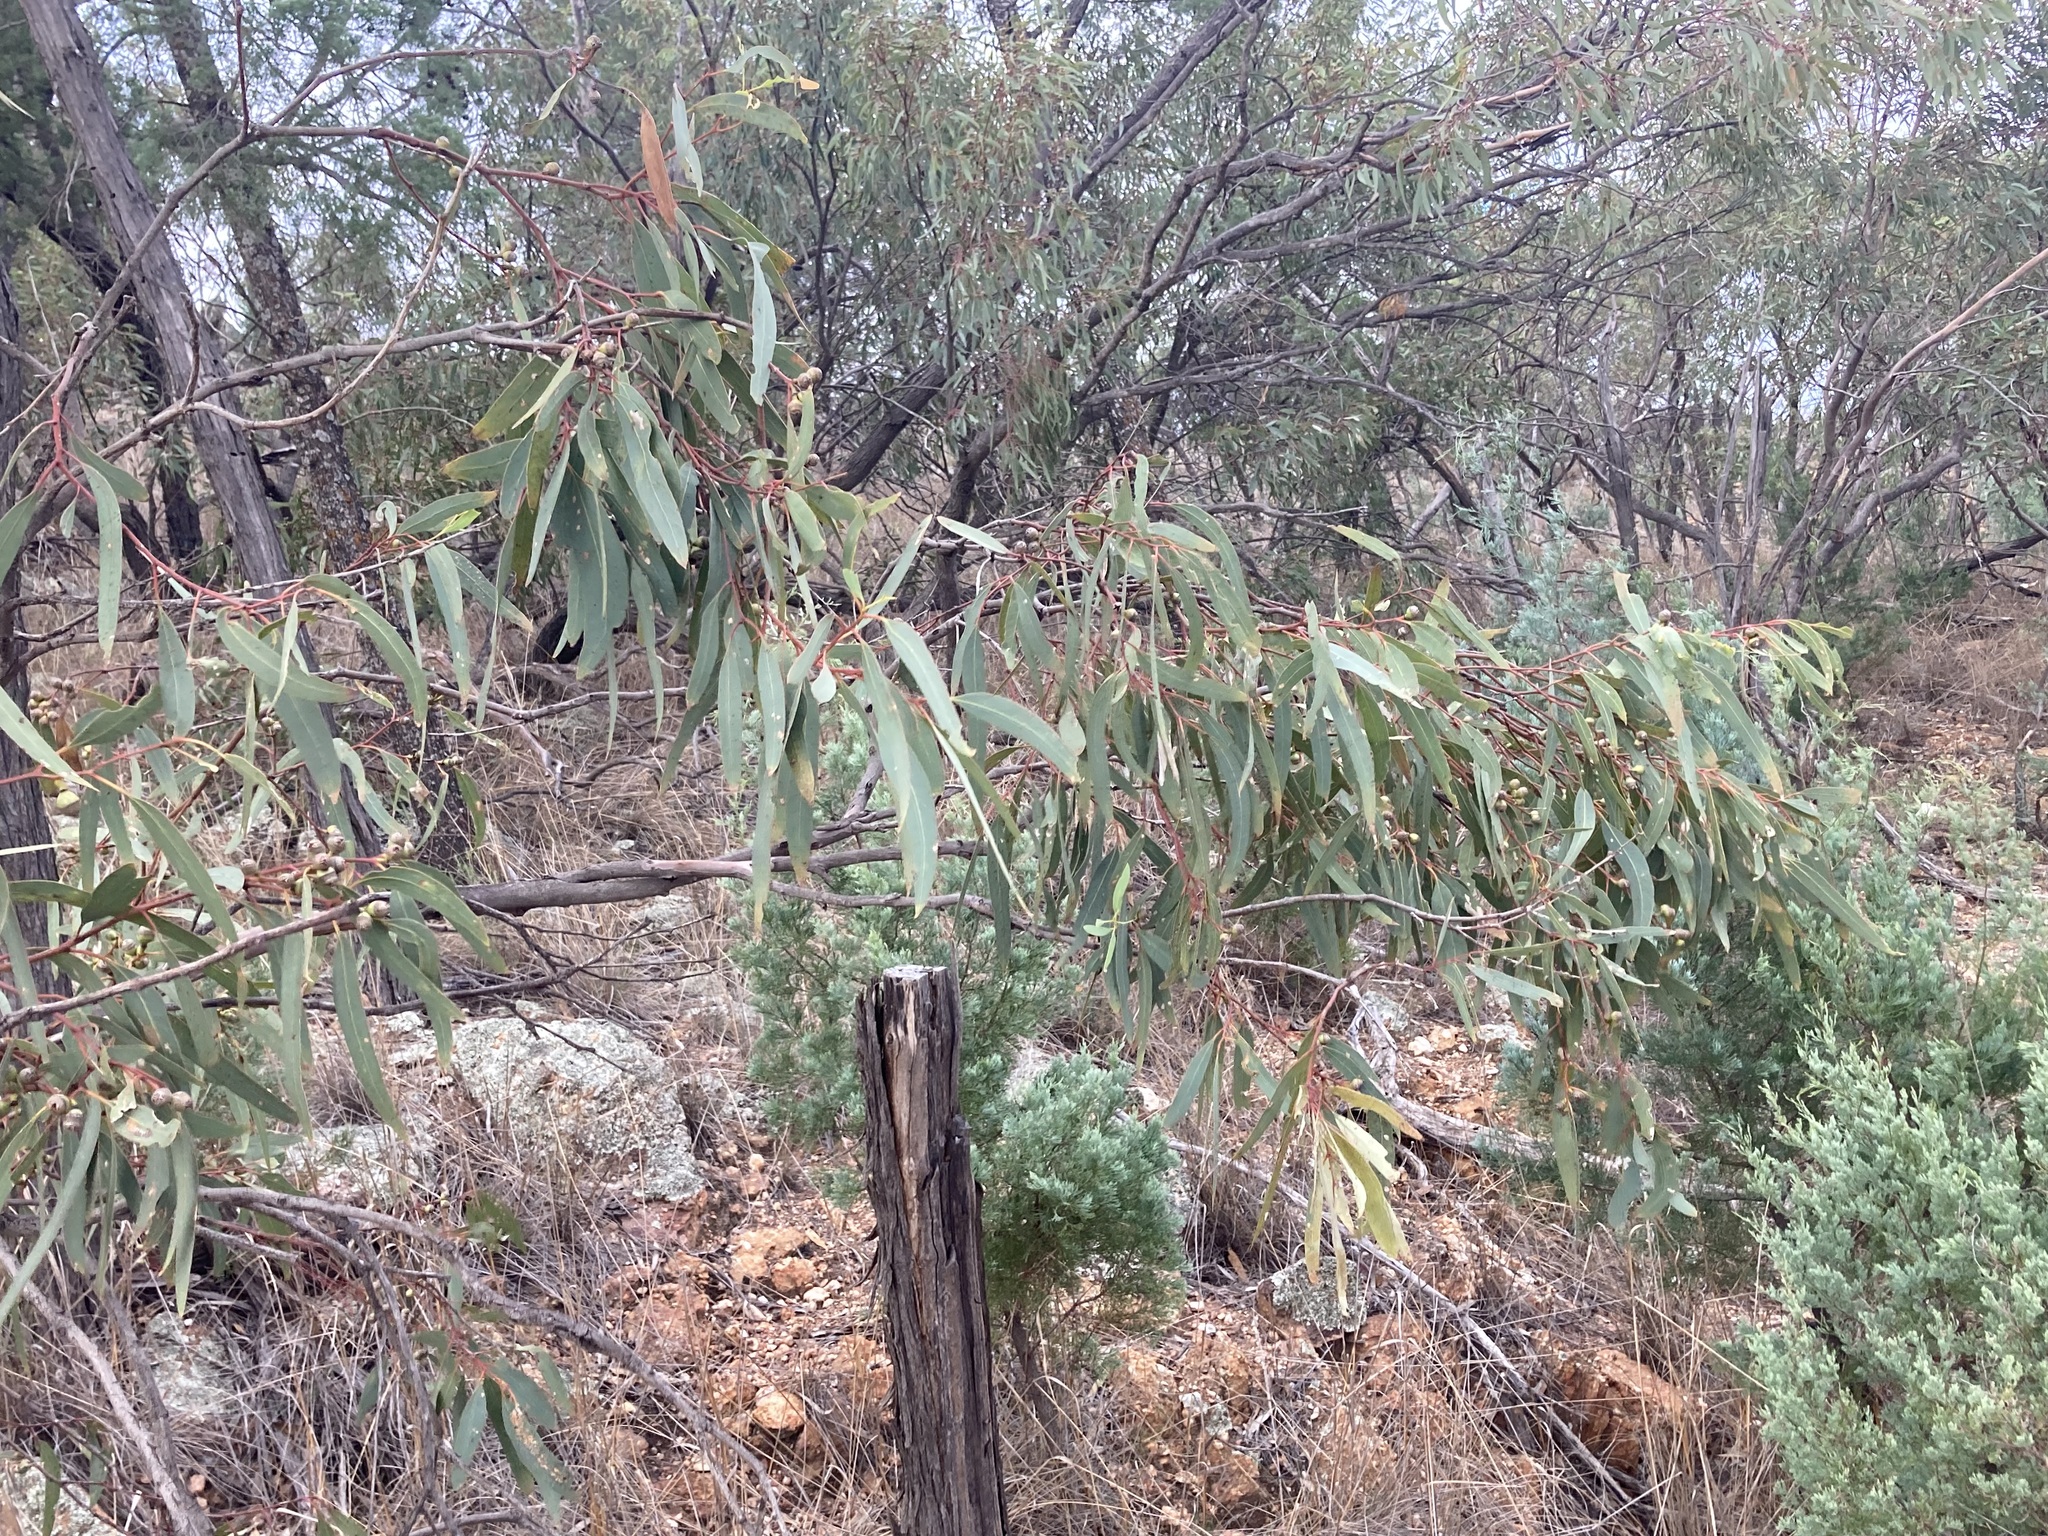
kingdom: Plantae
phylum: Tracheophyta
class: Magnoliopsida
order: Myrtales
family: Myrtaceae
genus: Eucalyptus
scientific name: Eucalyptus morrisii
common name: Grey mallee
